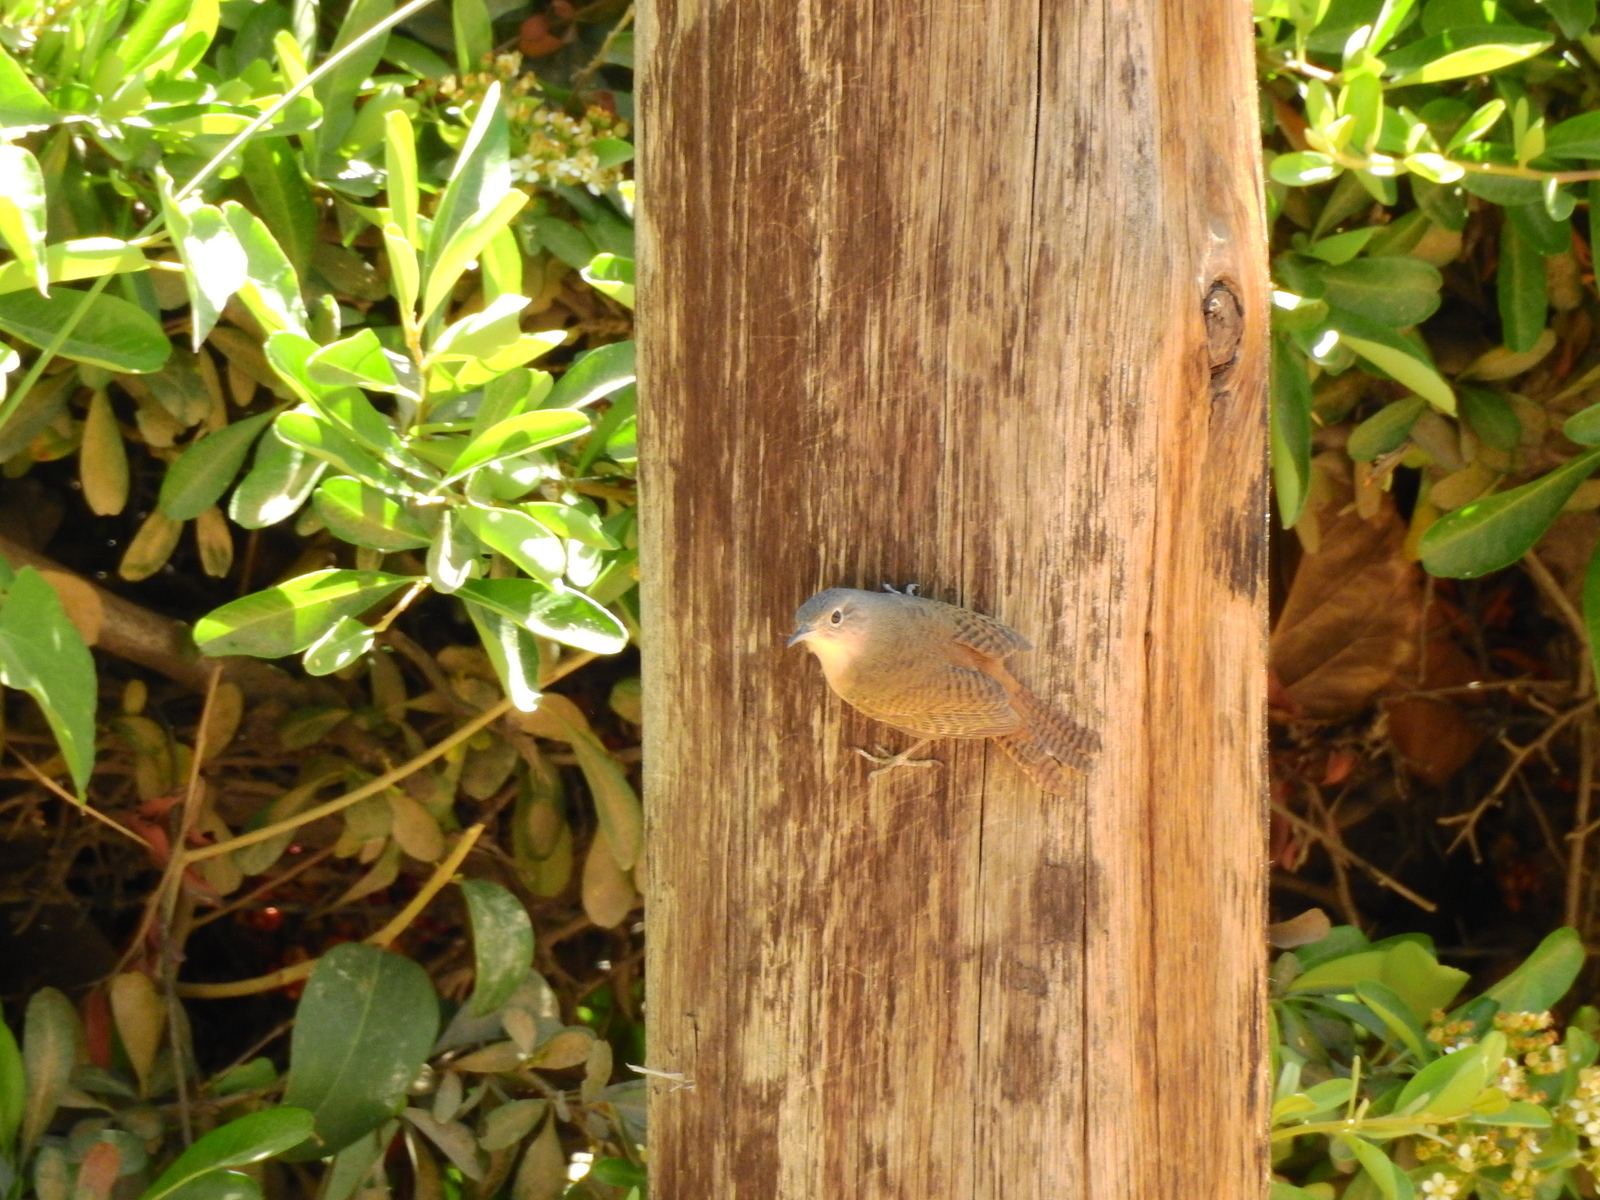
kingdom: Animalia
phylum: Chordata
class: Aves
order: Passeriformes
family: Troglodytidae
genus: Troglodytes
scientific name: Troglodytes aedon
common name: House wren
